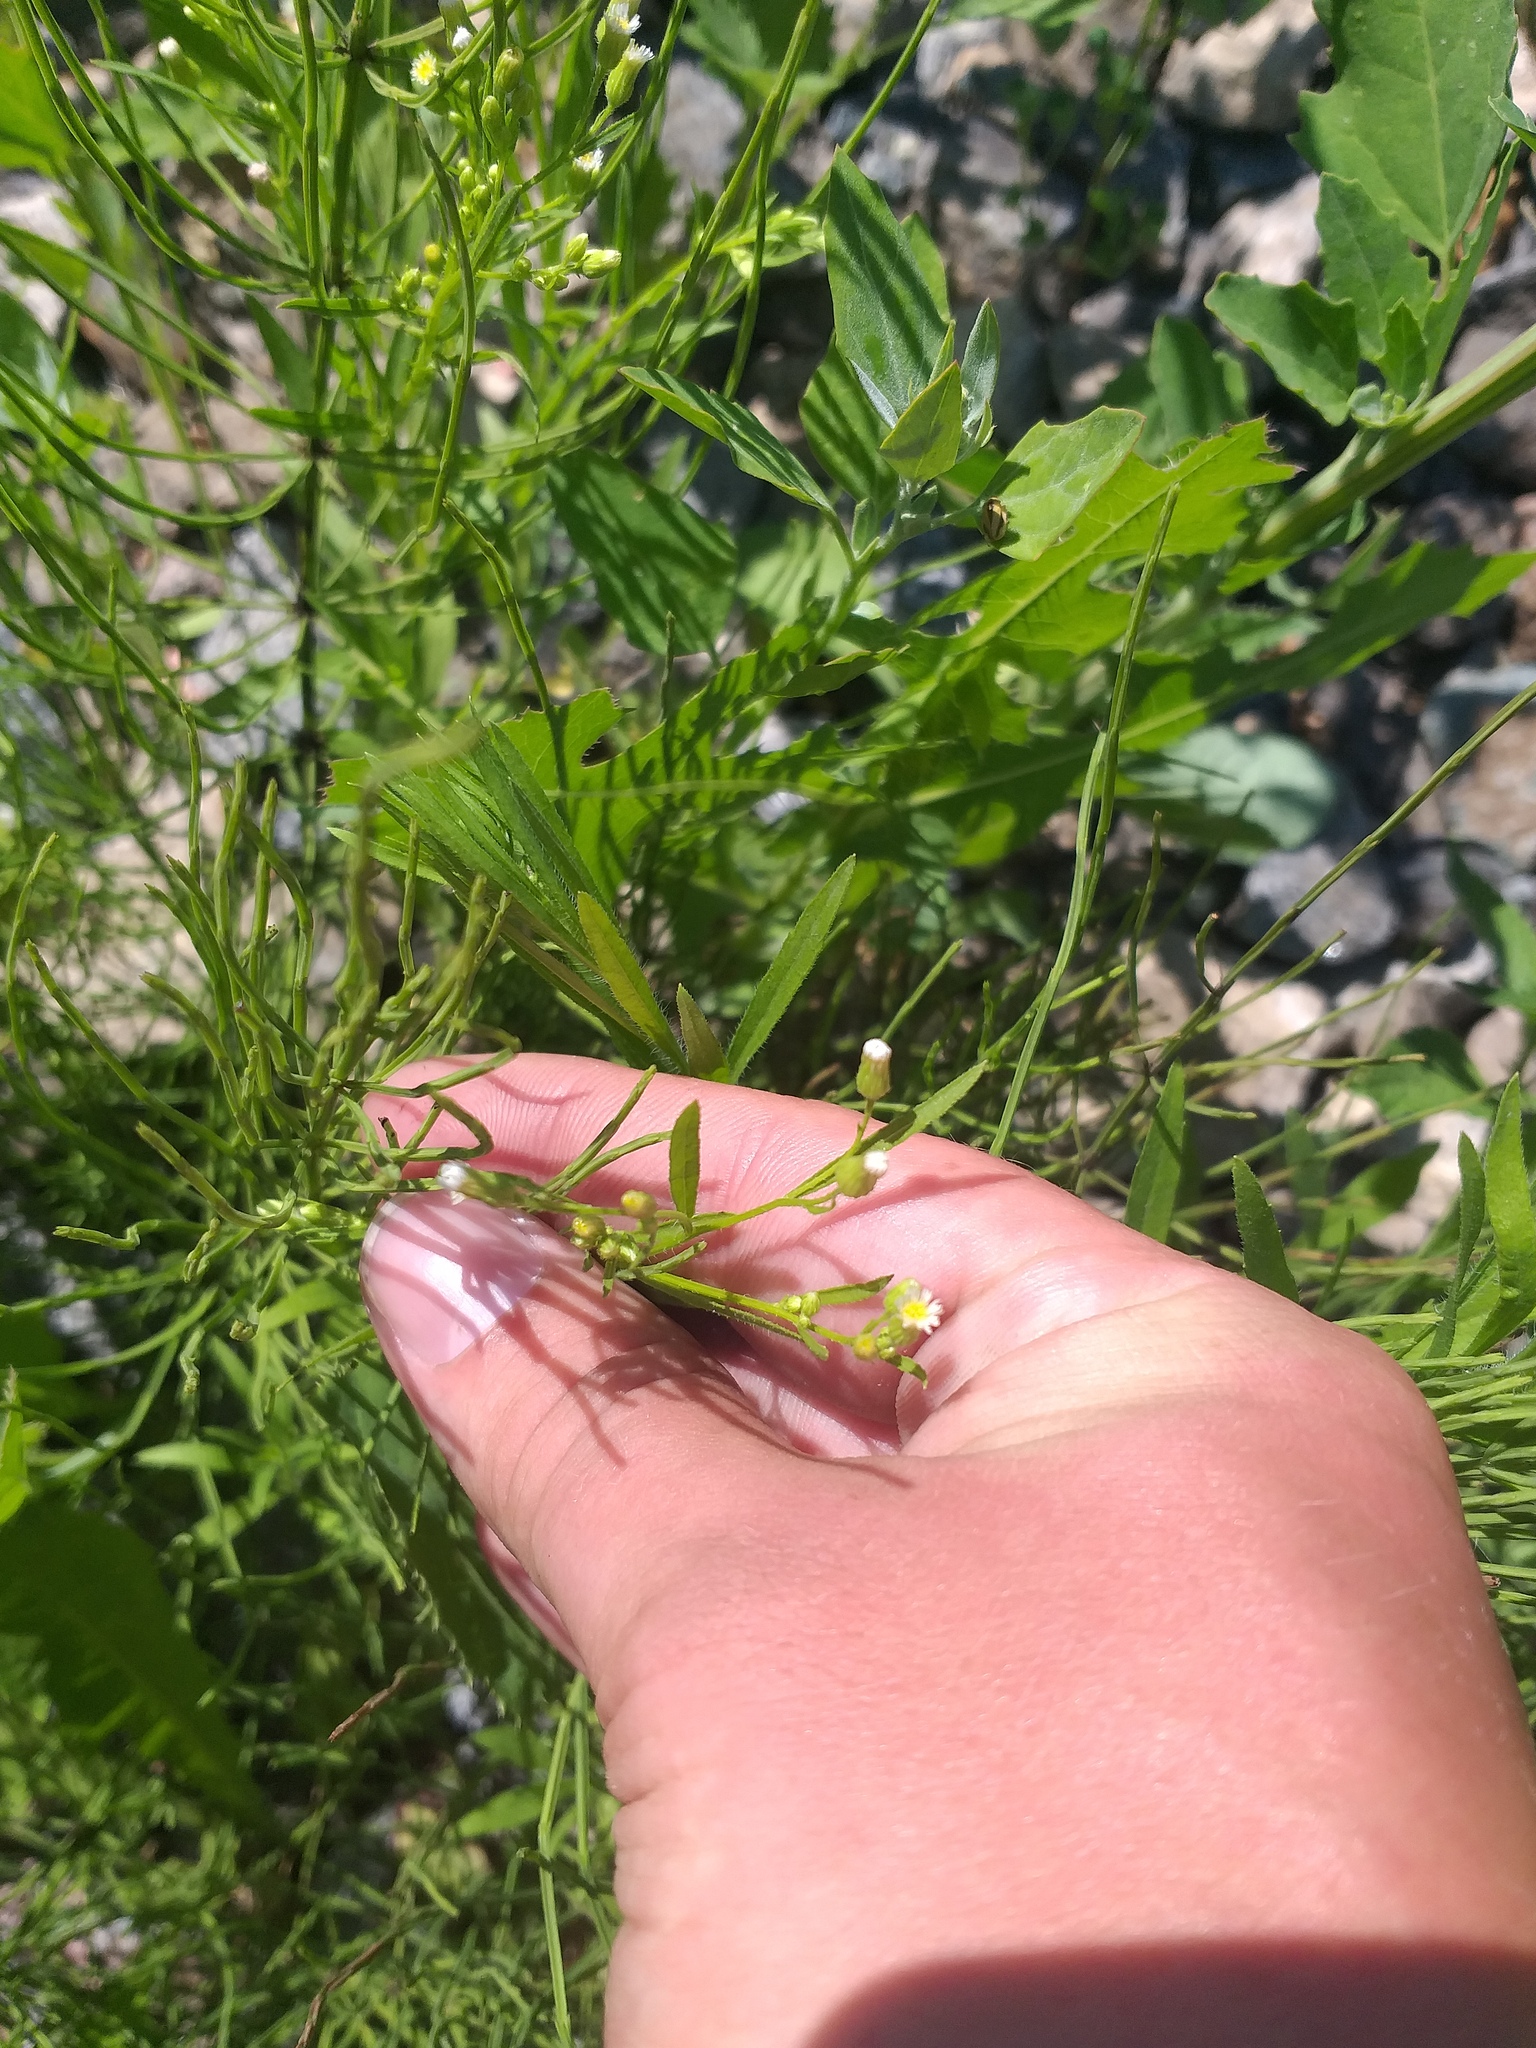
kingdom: Plantae
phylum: Tracheophyta
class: Magnoliopsida
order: Asterales
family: Asteraceae
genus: Erigeron
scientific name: Erigeron canadensis
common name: Canadian fleabane
